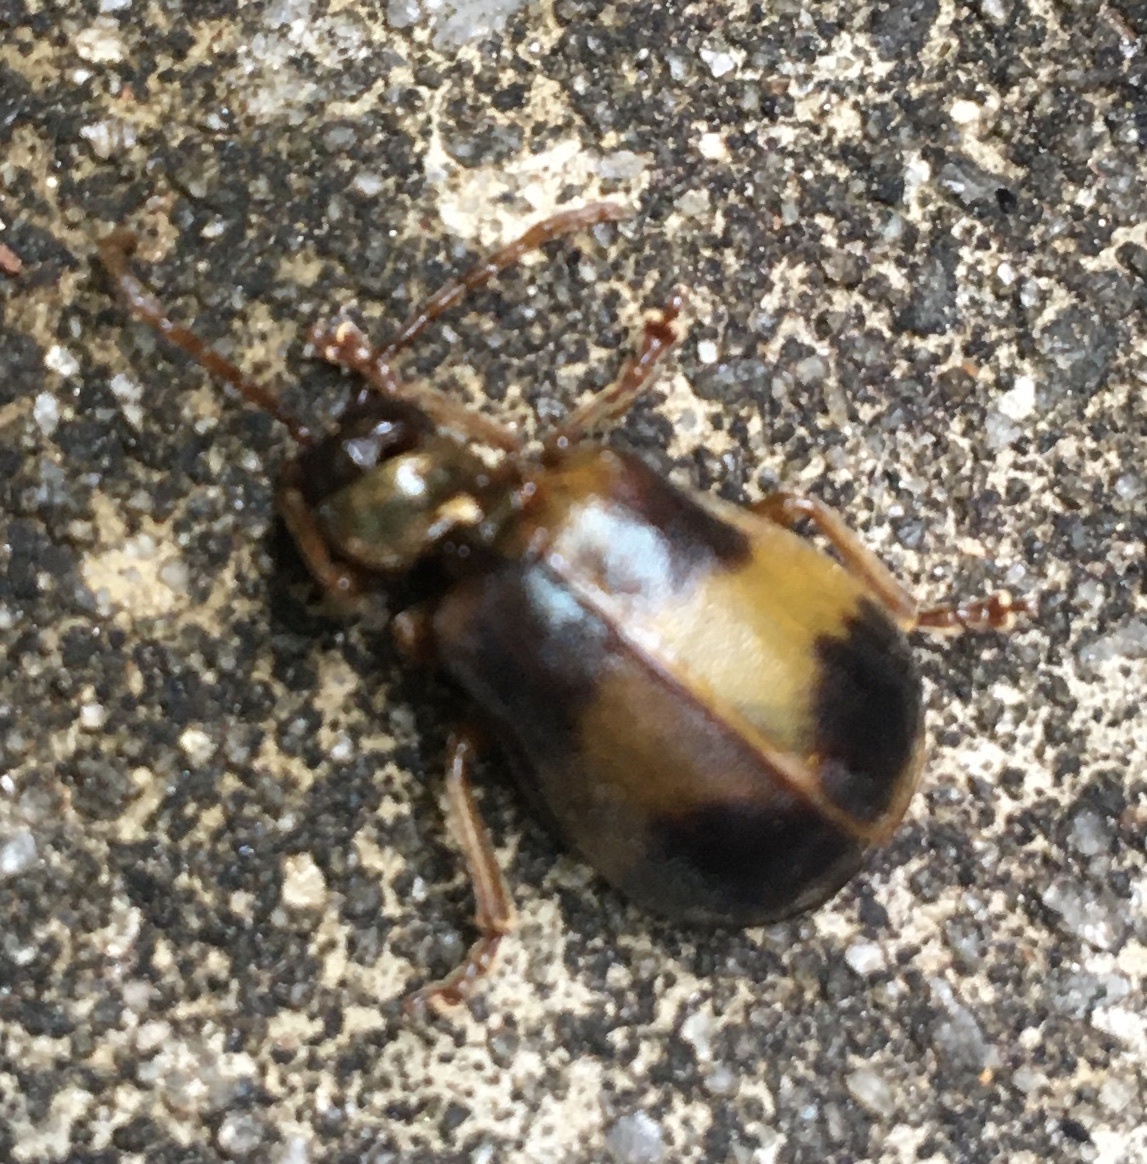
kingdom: Animalia
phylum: Arthropoda
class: Insecta
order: Coleoptera
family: Chrysomelidae
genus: Monocesta
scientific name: Monocesta coryli
